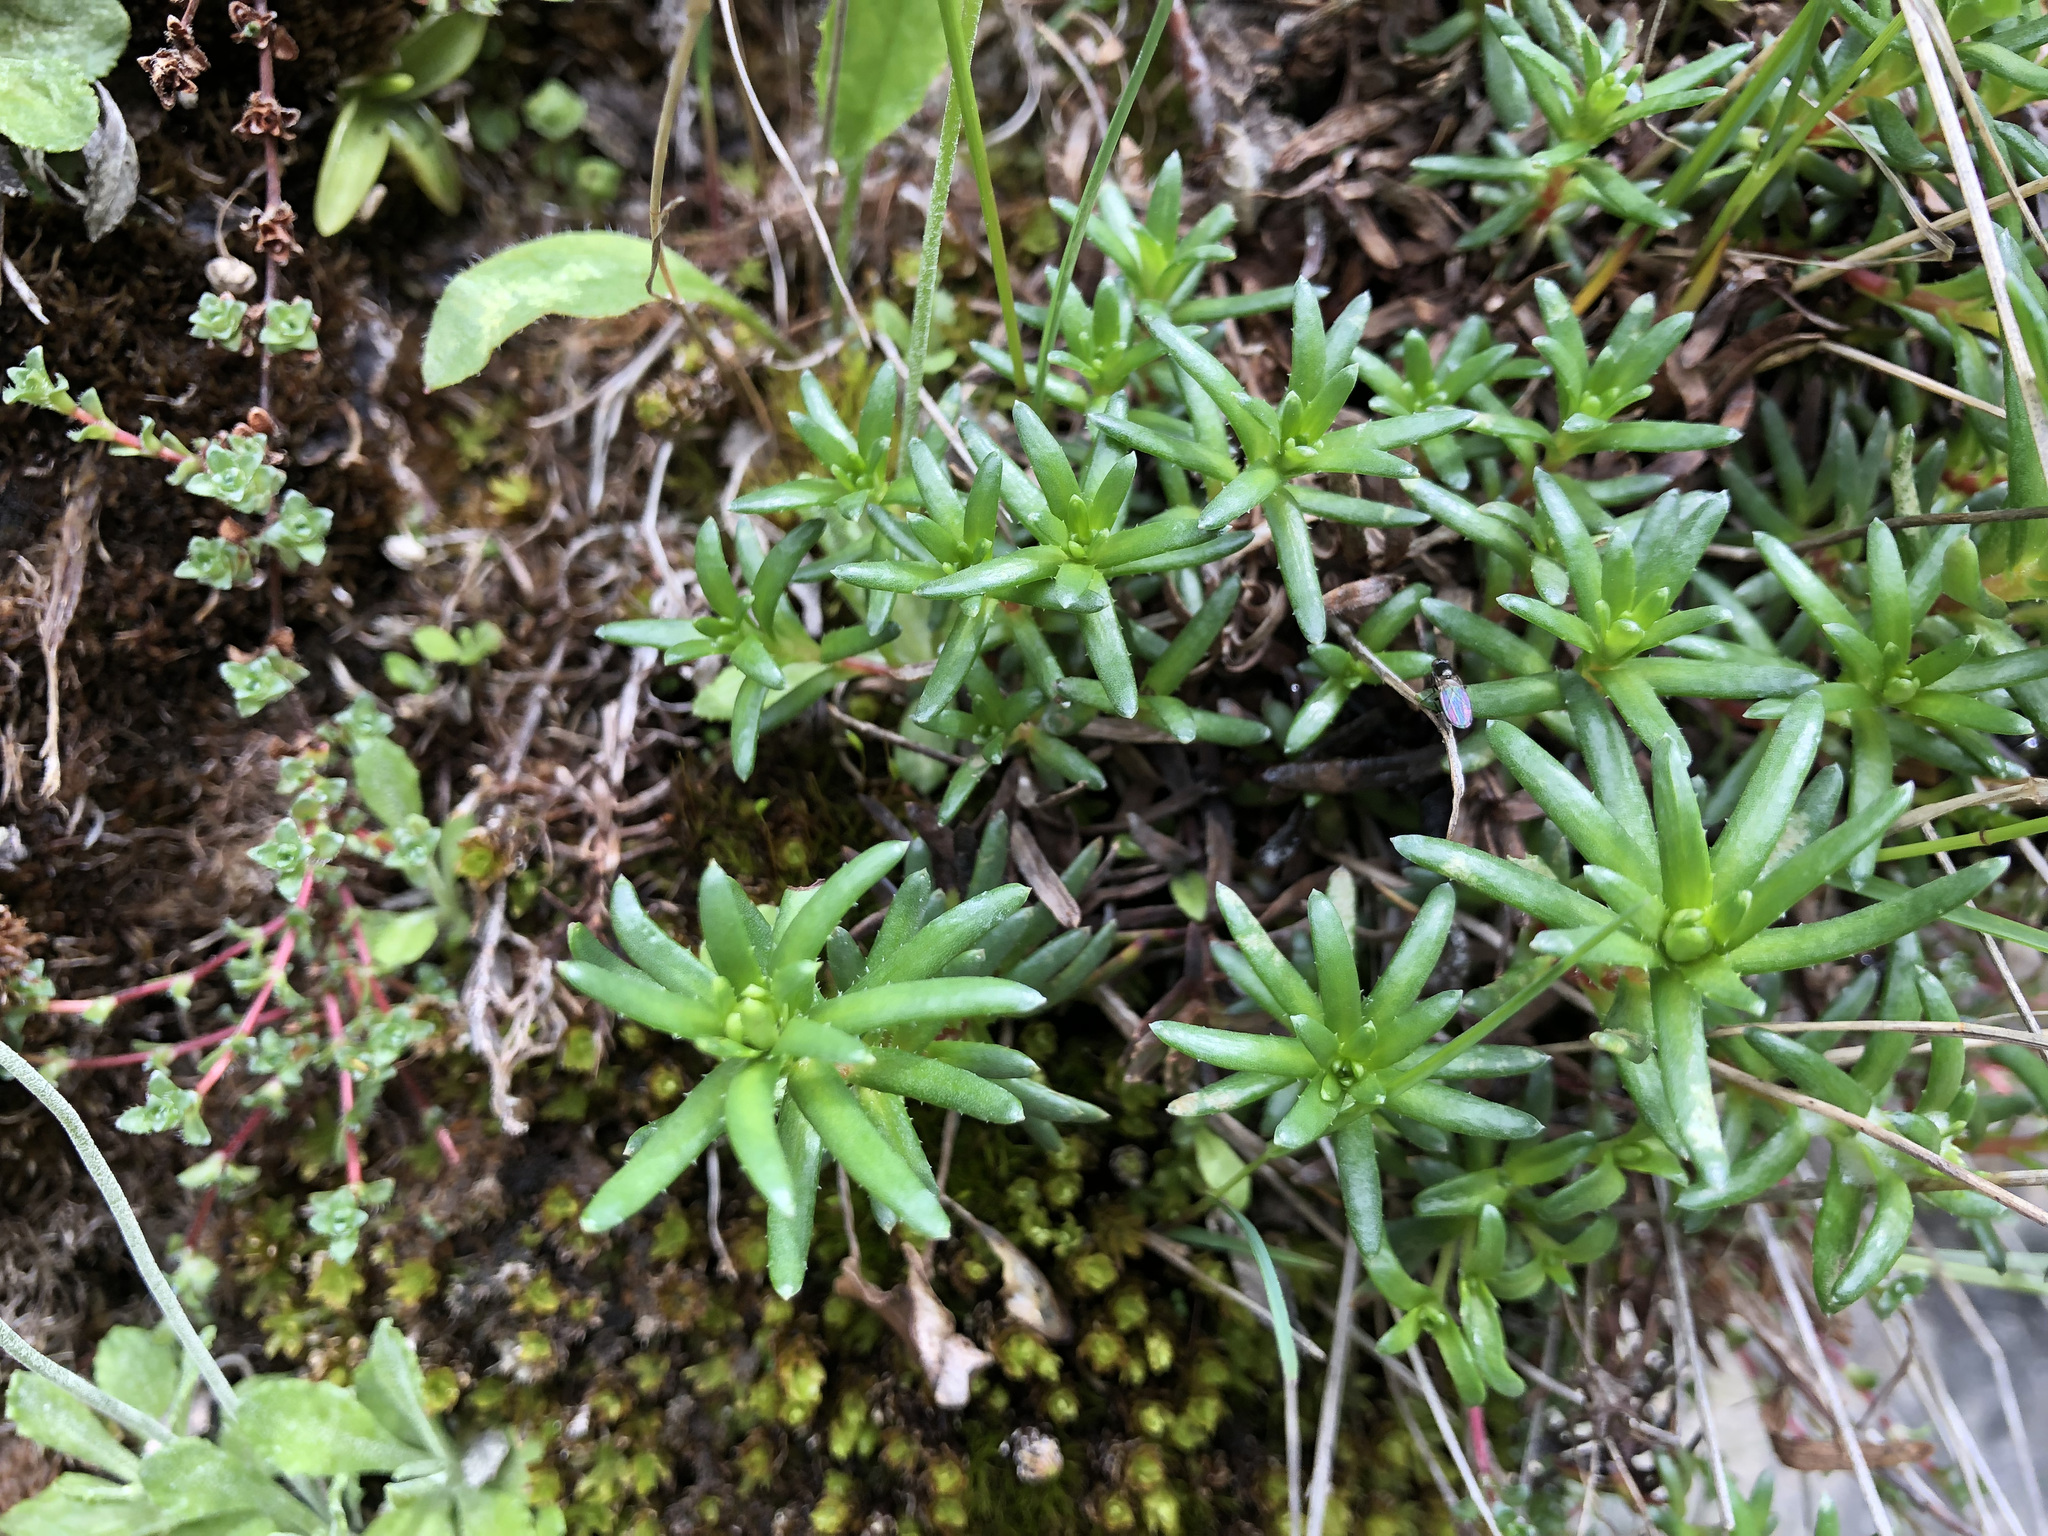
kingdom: Plantae
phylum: Tracheophyta
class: Magnoliopsida
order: Saxifragales
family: Saxifragaceae
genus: Saxifraga
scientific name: Saxifraga aizoides
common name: Yellow mountain saxifrage
